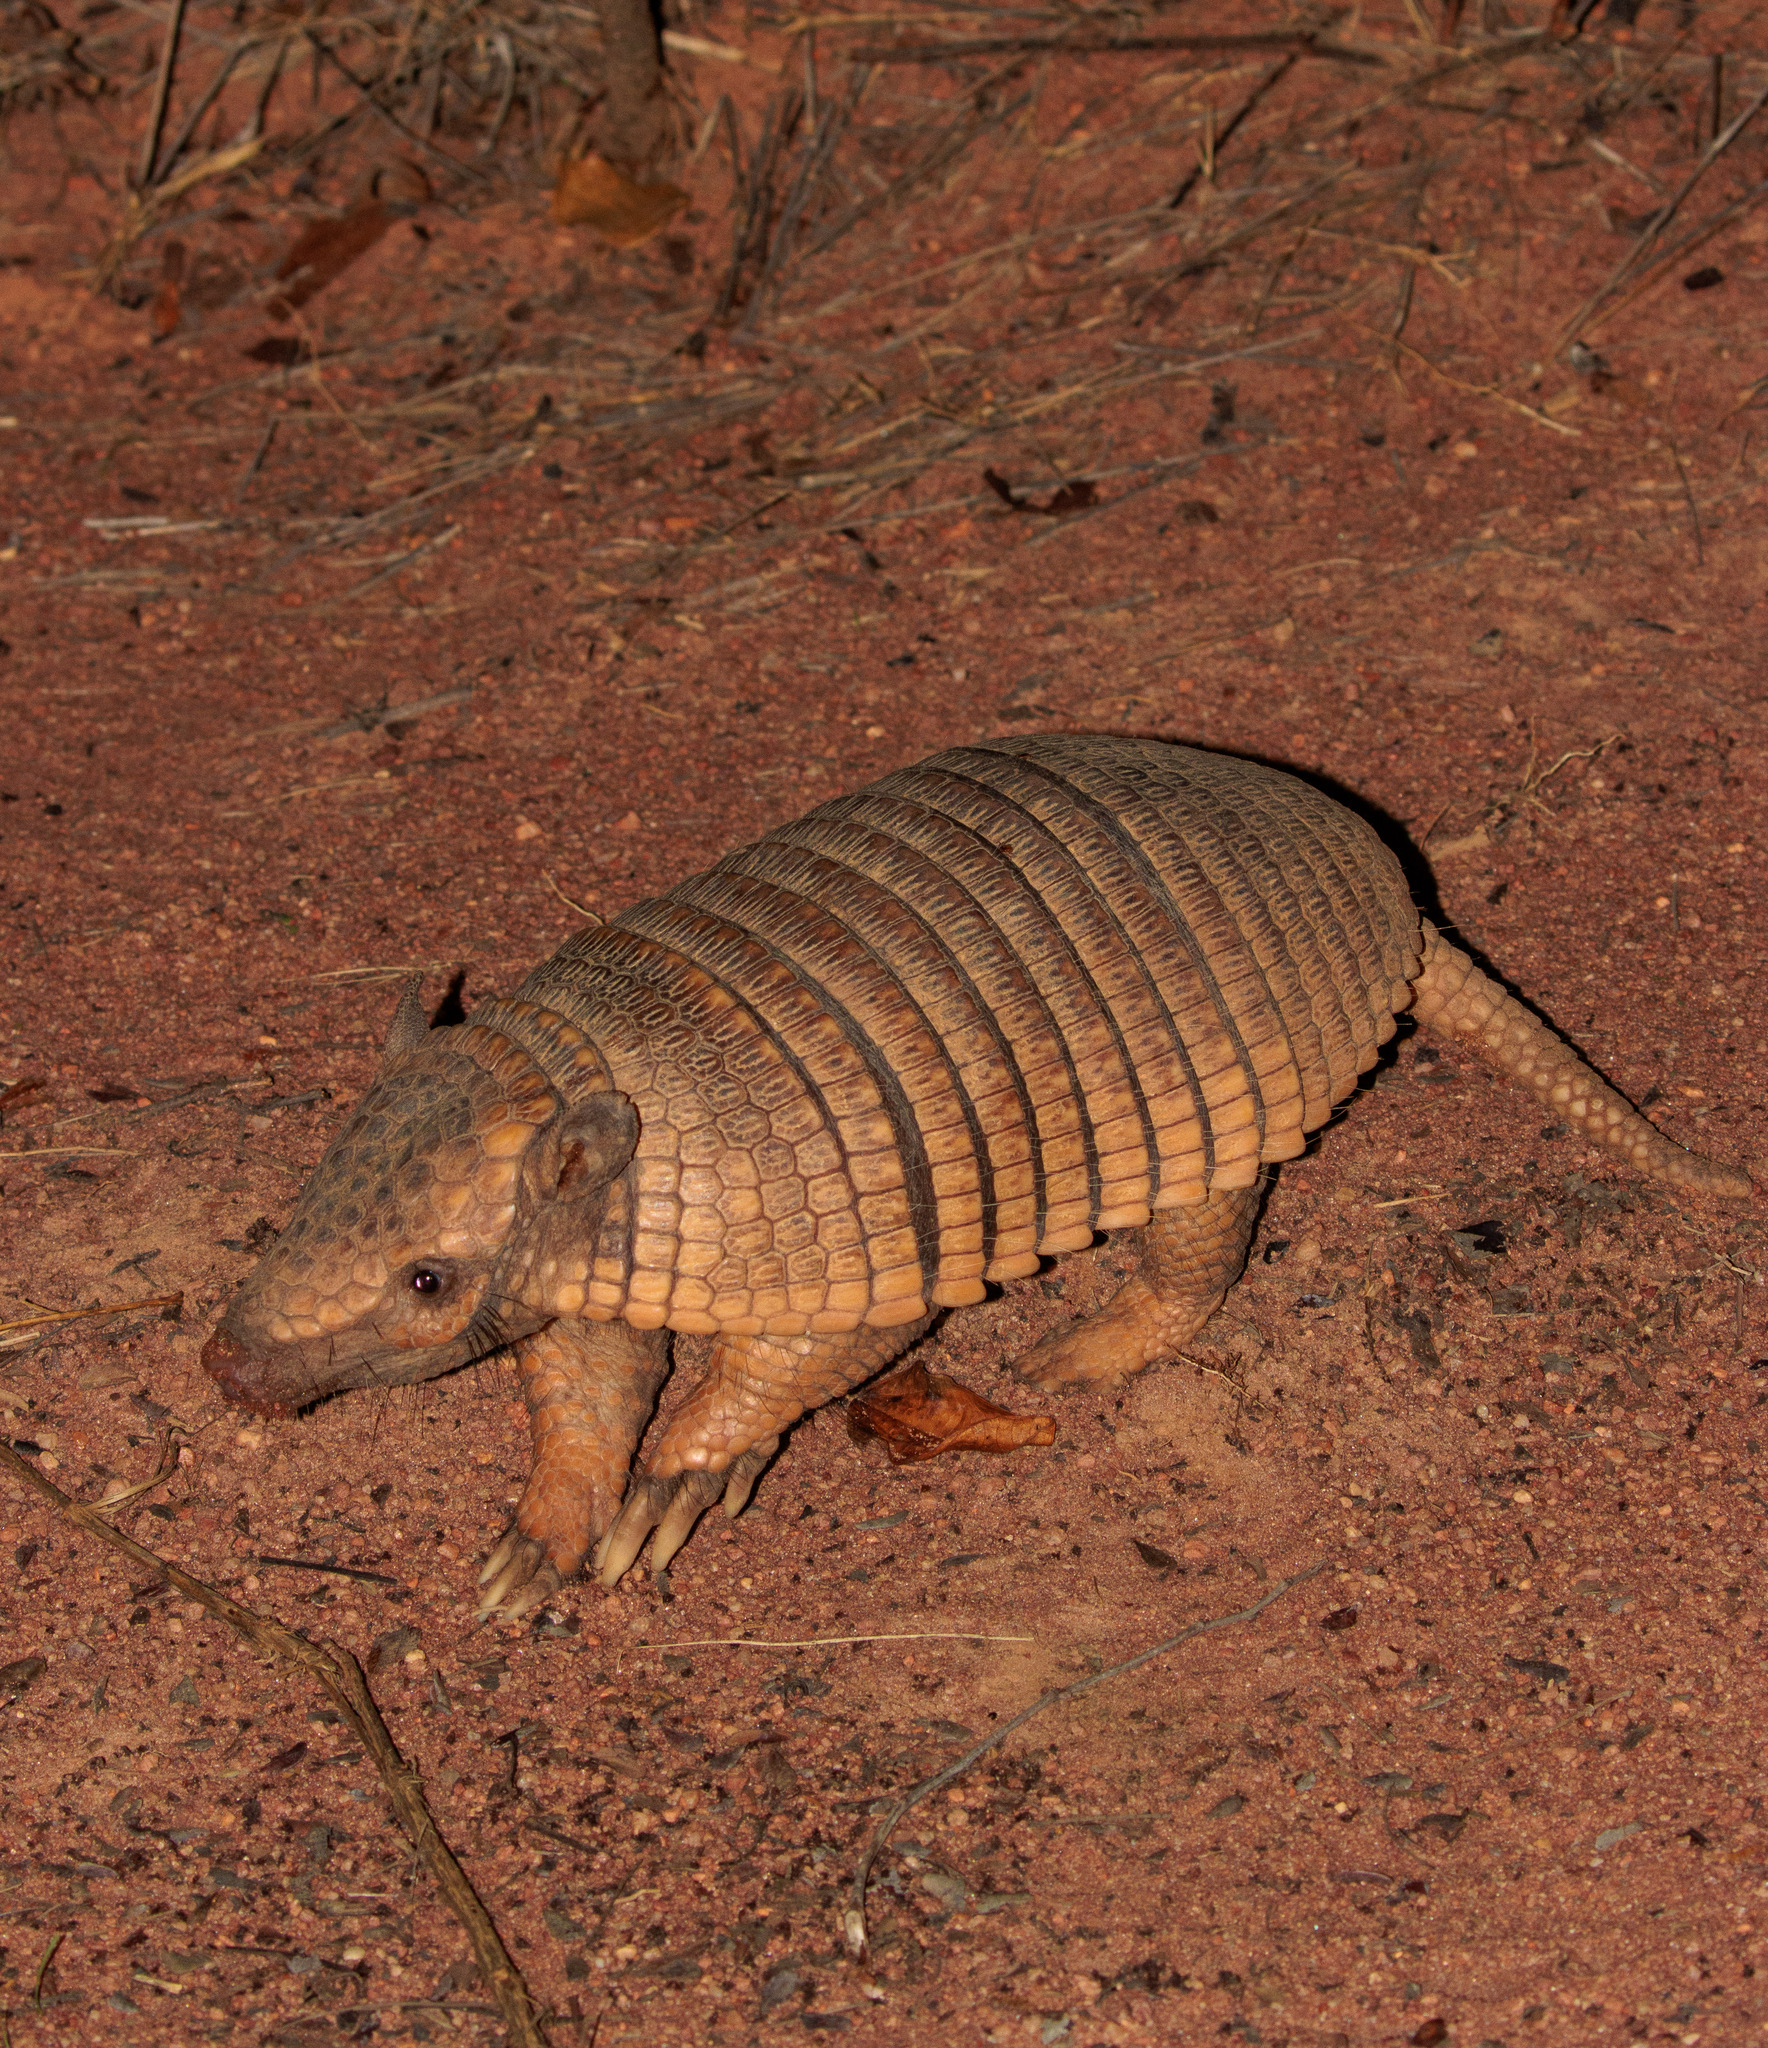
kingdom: Animalia
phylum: Chordata
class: Mammalia
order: Cingulata
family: Dasypodidae
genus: Euphractus
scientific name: Euphractus sexcinctus
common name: Six-banded armadillo
